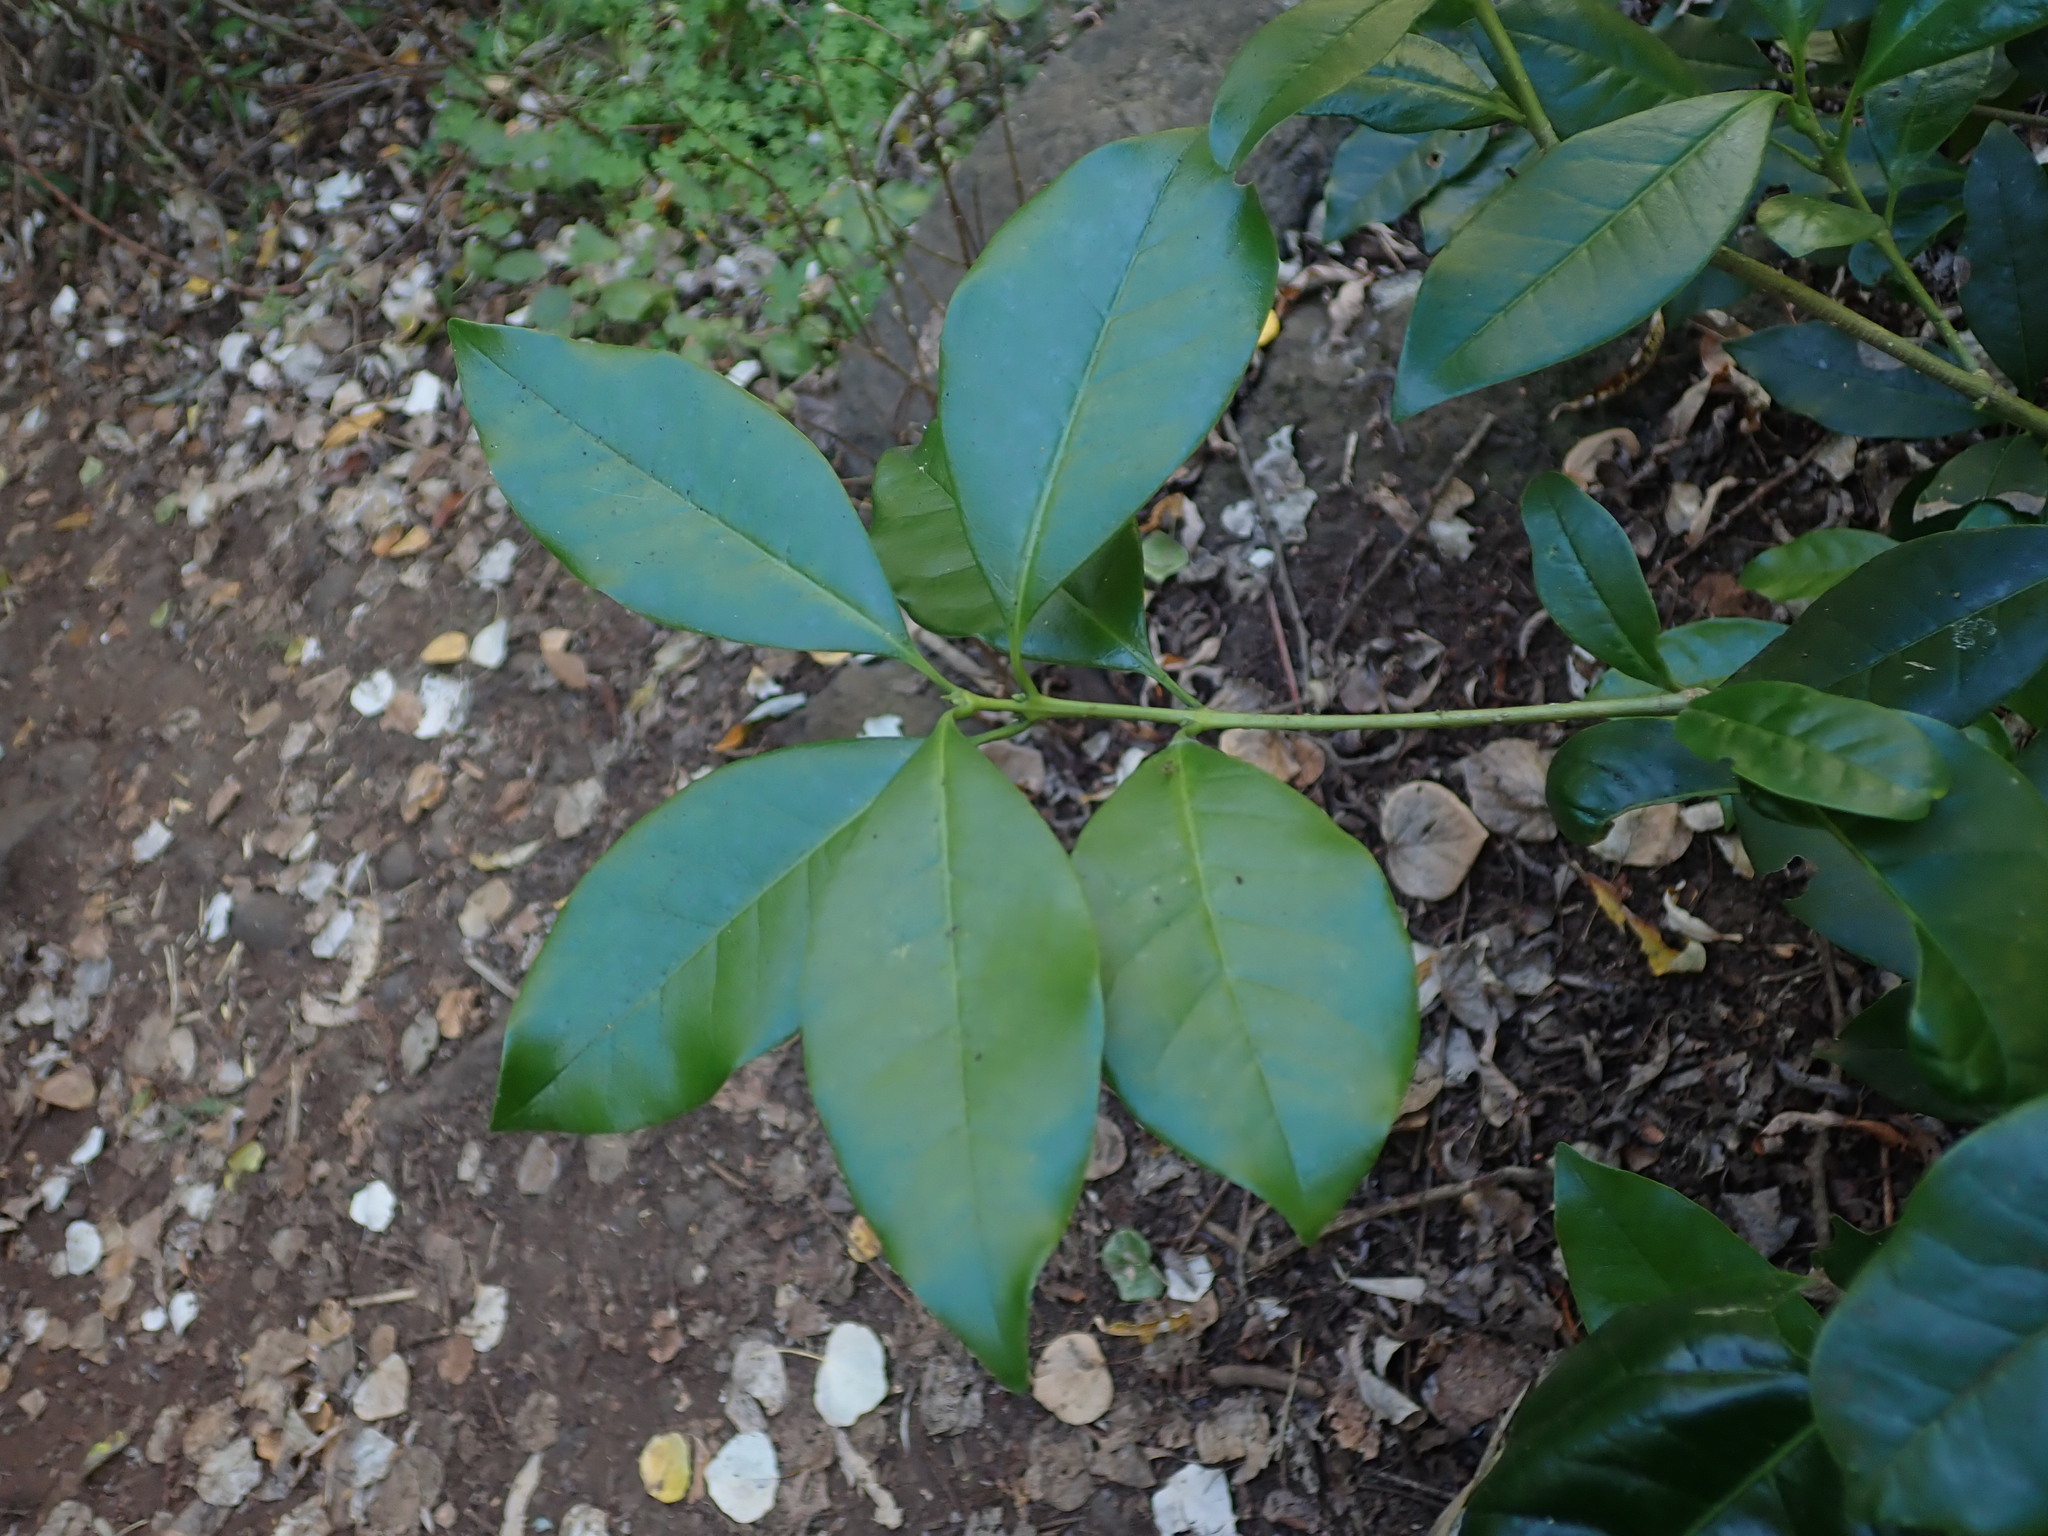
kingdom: Plantae
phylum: Tracheophyta
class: Magnoliopsida
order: Lamiales
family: Oleaceae
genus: Picconia
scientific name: Picconia excelsa
